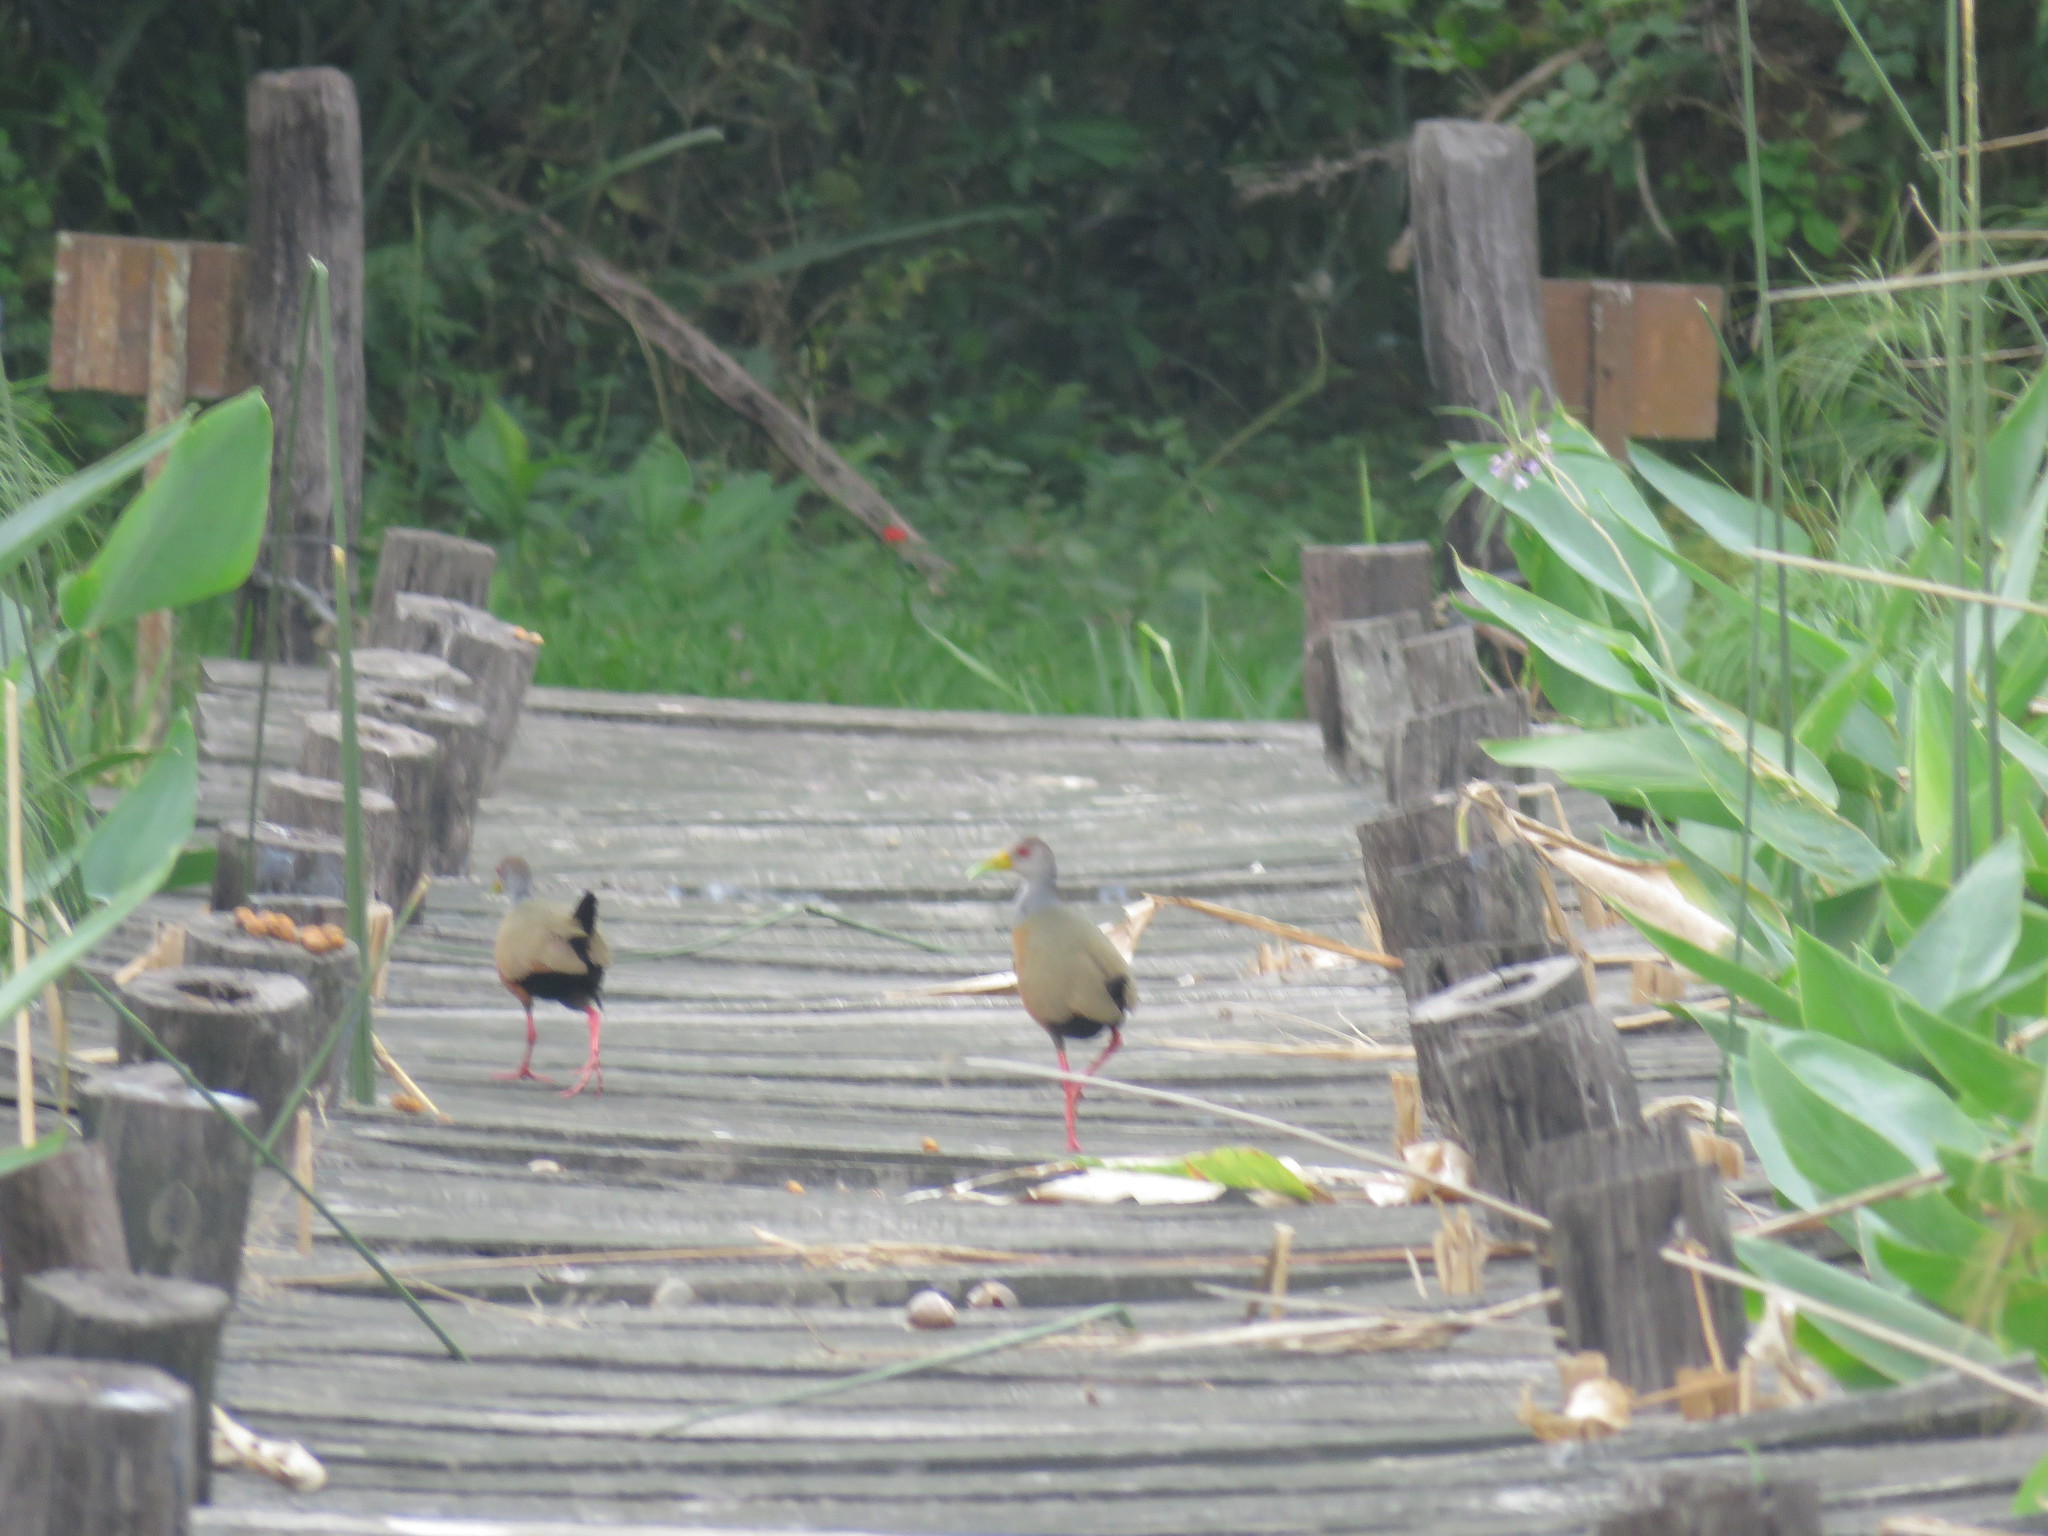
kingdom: Animalia
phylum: Chordata
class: Aves
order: Gruiformes
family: Rallidae
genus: Aramides
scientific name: Aramides cajanea
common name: Gray-necked wood-rail
